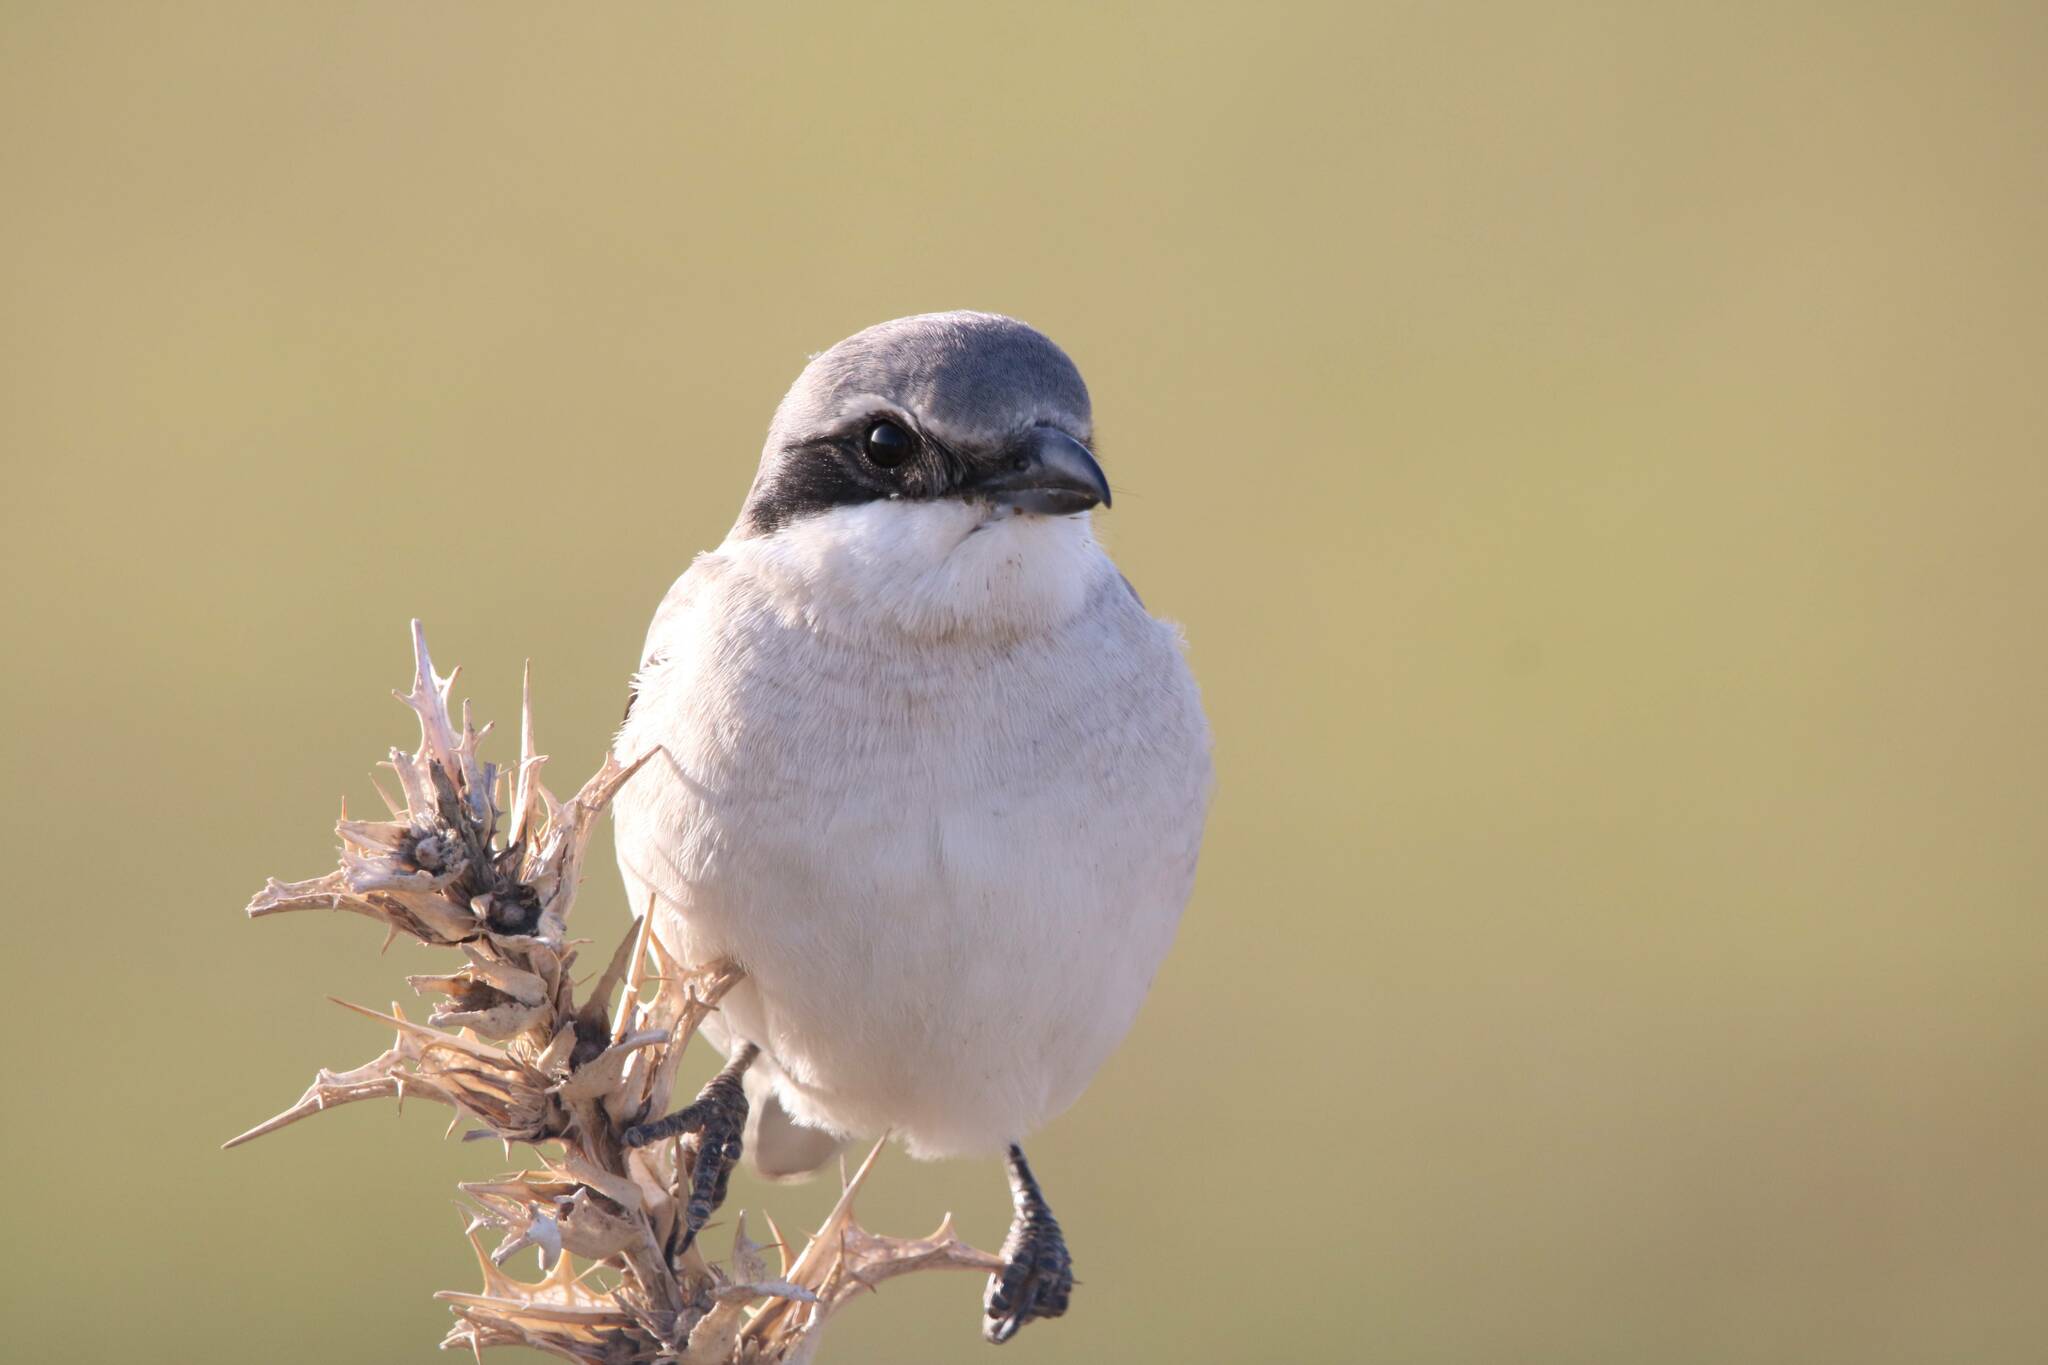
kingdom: Animalia
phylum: Chordata
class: Aves
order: Passeriformes
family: Laniidae
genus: Lanius
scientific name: Lanius excubitor
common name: Great grey shrike
